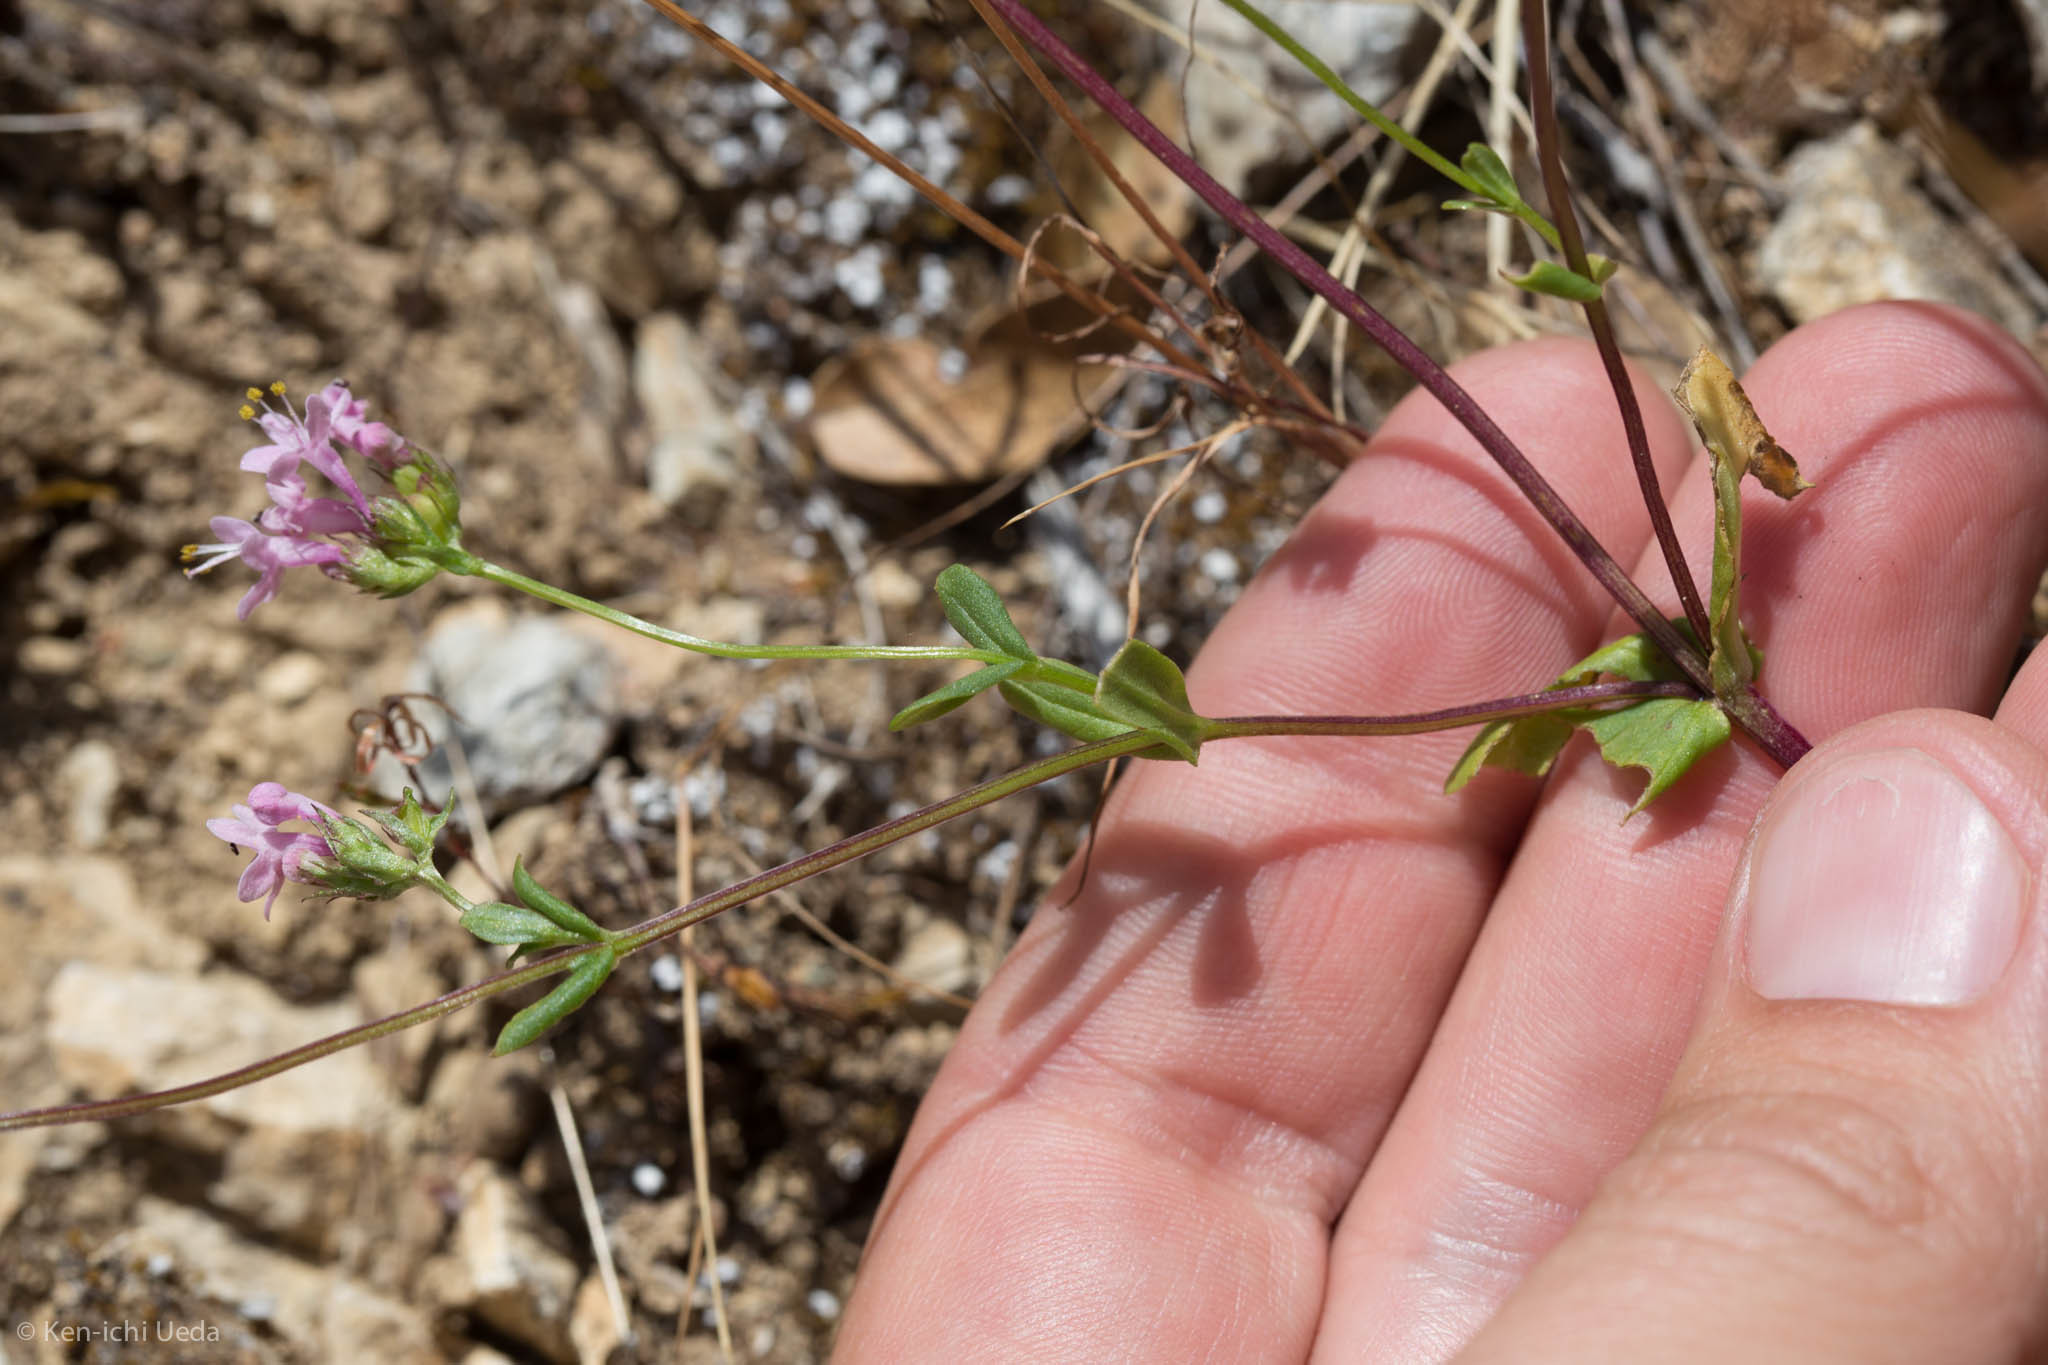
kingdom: Plantae
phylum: Tracheophyta
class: Magnoliopsida
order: Dipsacales
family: Caprifoliaceae
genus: Plectritis
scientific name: Plectritis congesta
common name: Pink plectritis
